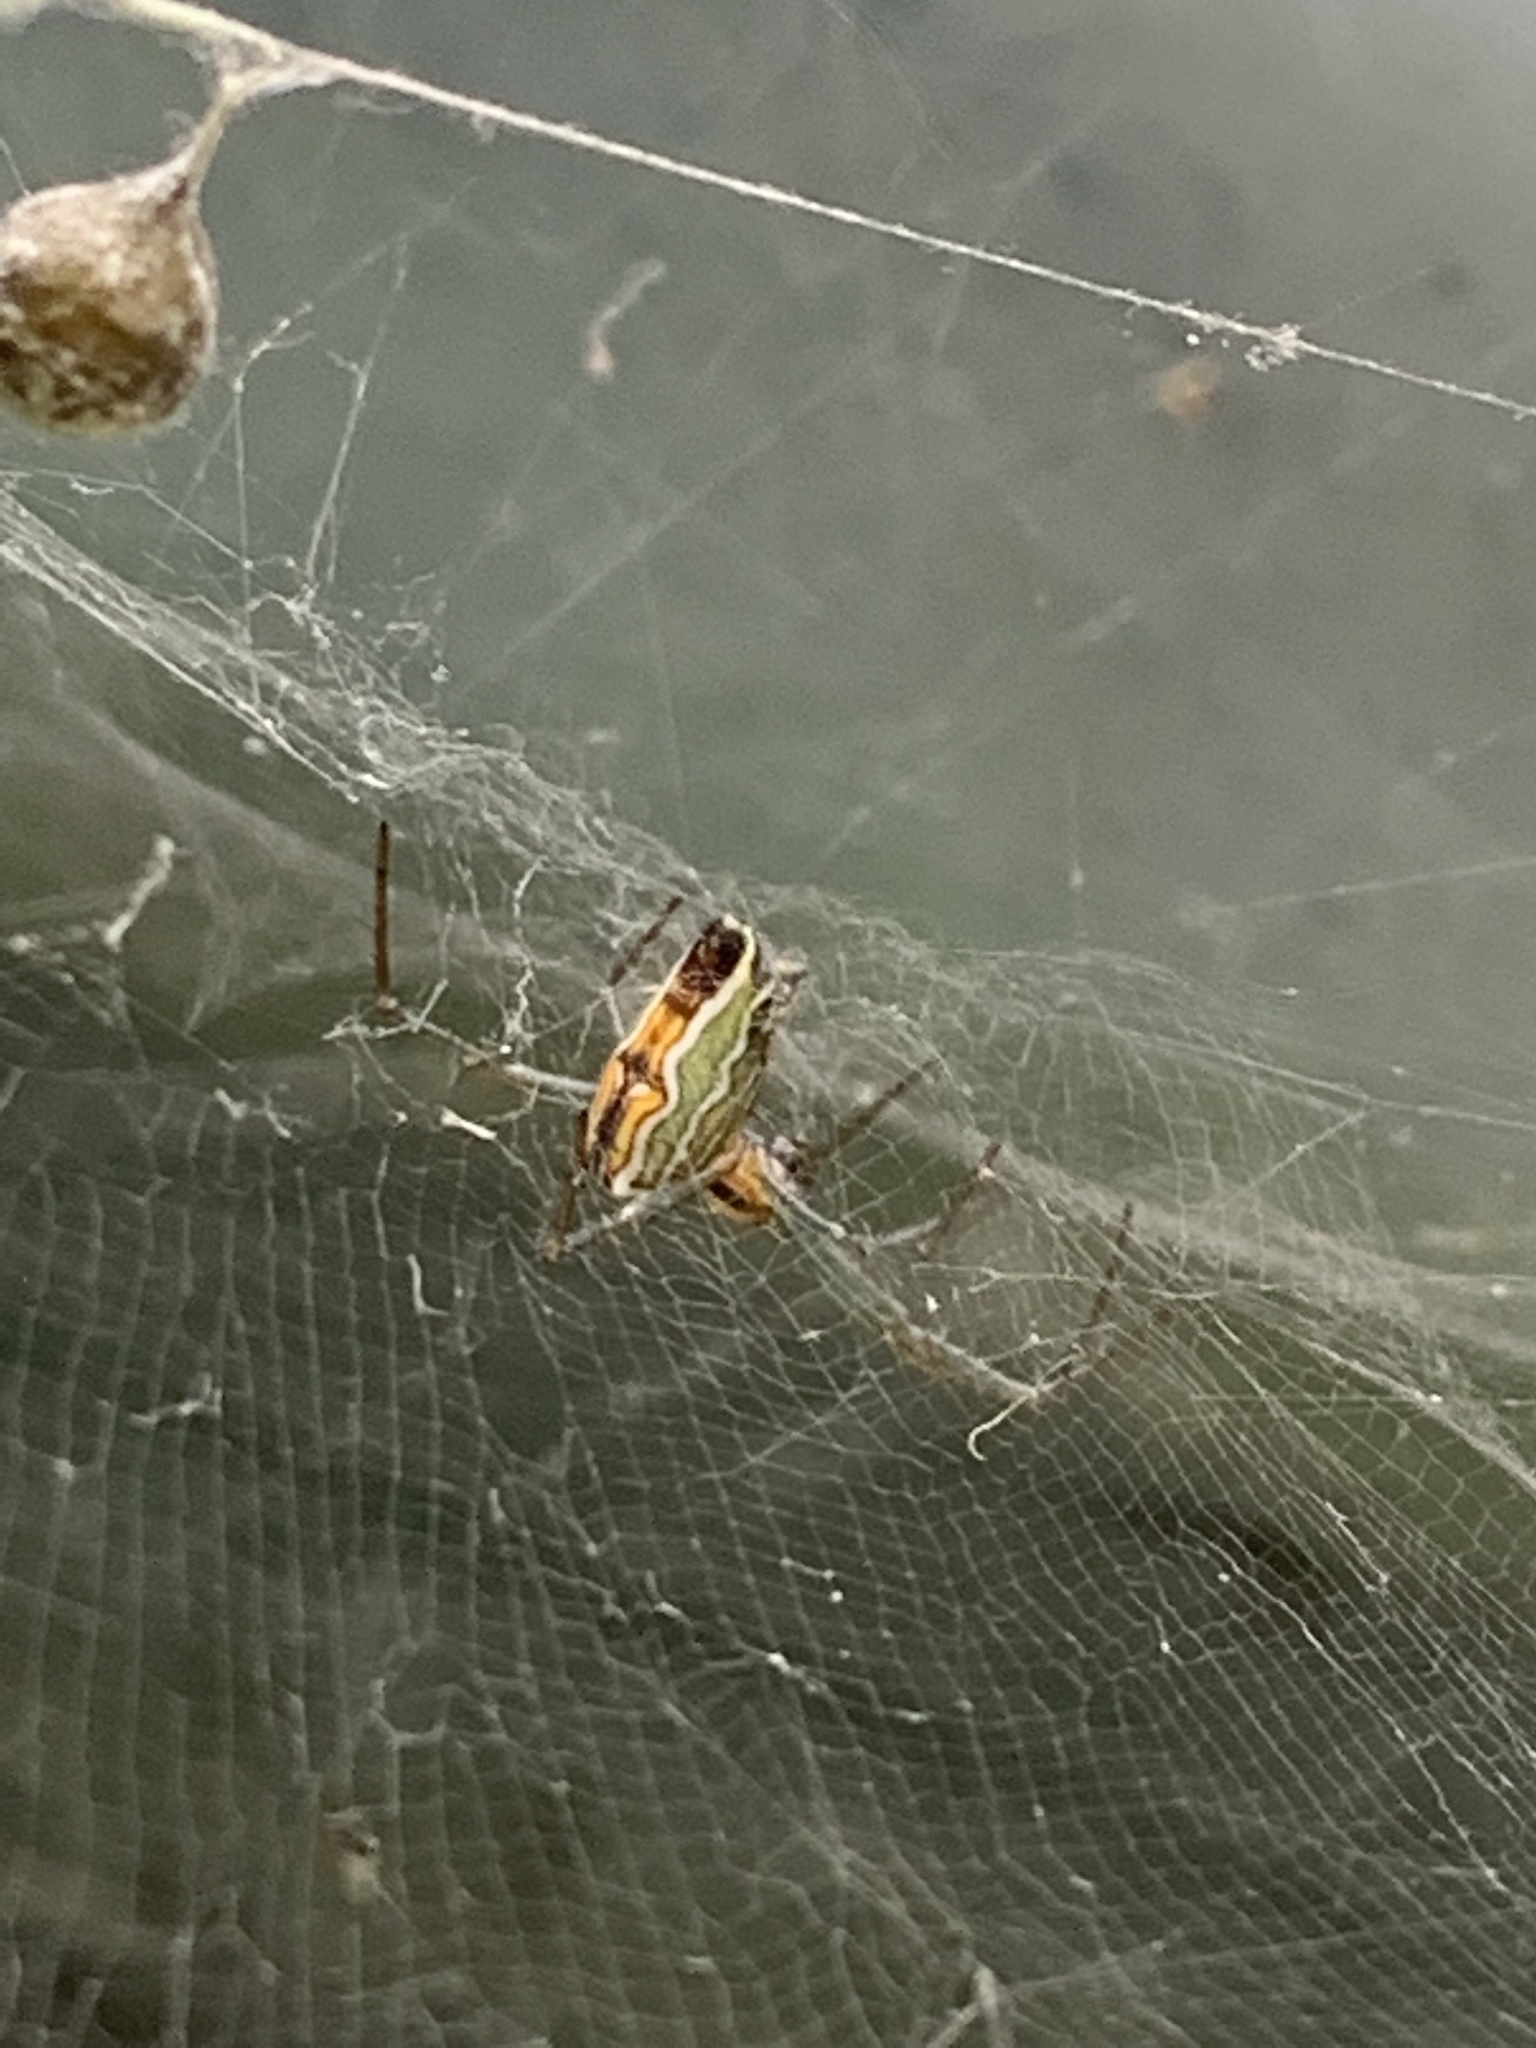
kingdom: Animalia
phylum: Arthropoda
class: Arachnida
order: Araneae
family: Araneidae
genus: Mecynogea
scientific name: Mecynogea lemniscata
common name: Orb weavers
